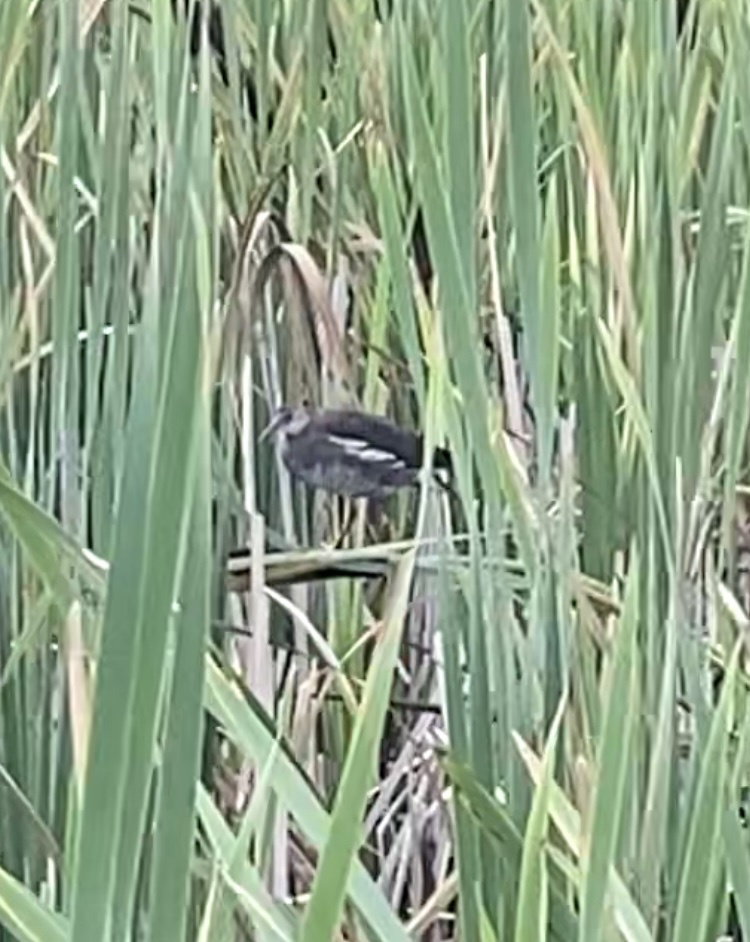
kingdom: Animalia
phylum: Chordata
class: Aves
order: Gruiformes
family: Rallidae
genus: Gallinula
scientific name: Gallinula chloropus
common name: Common moorhen
